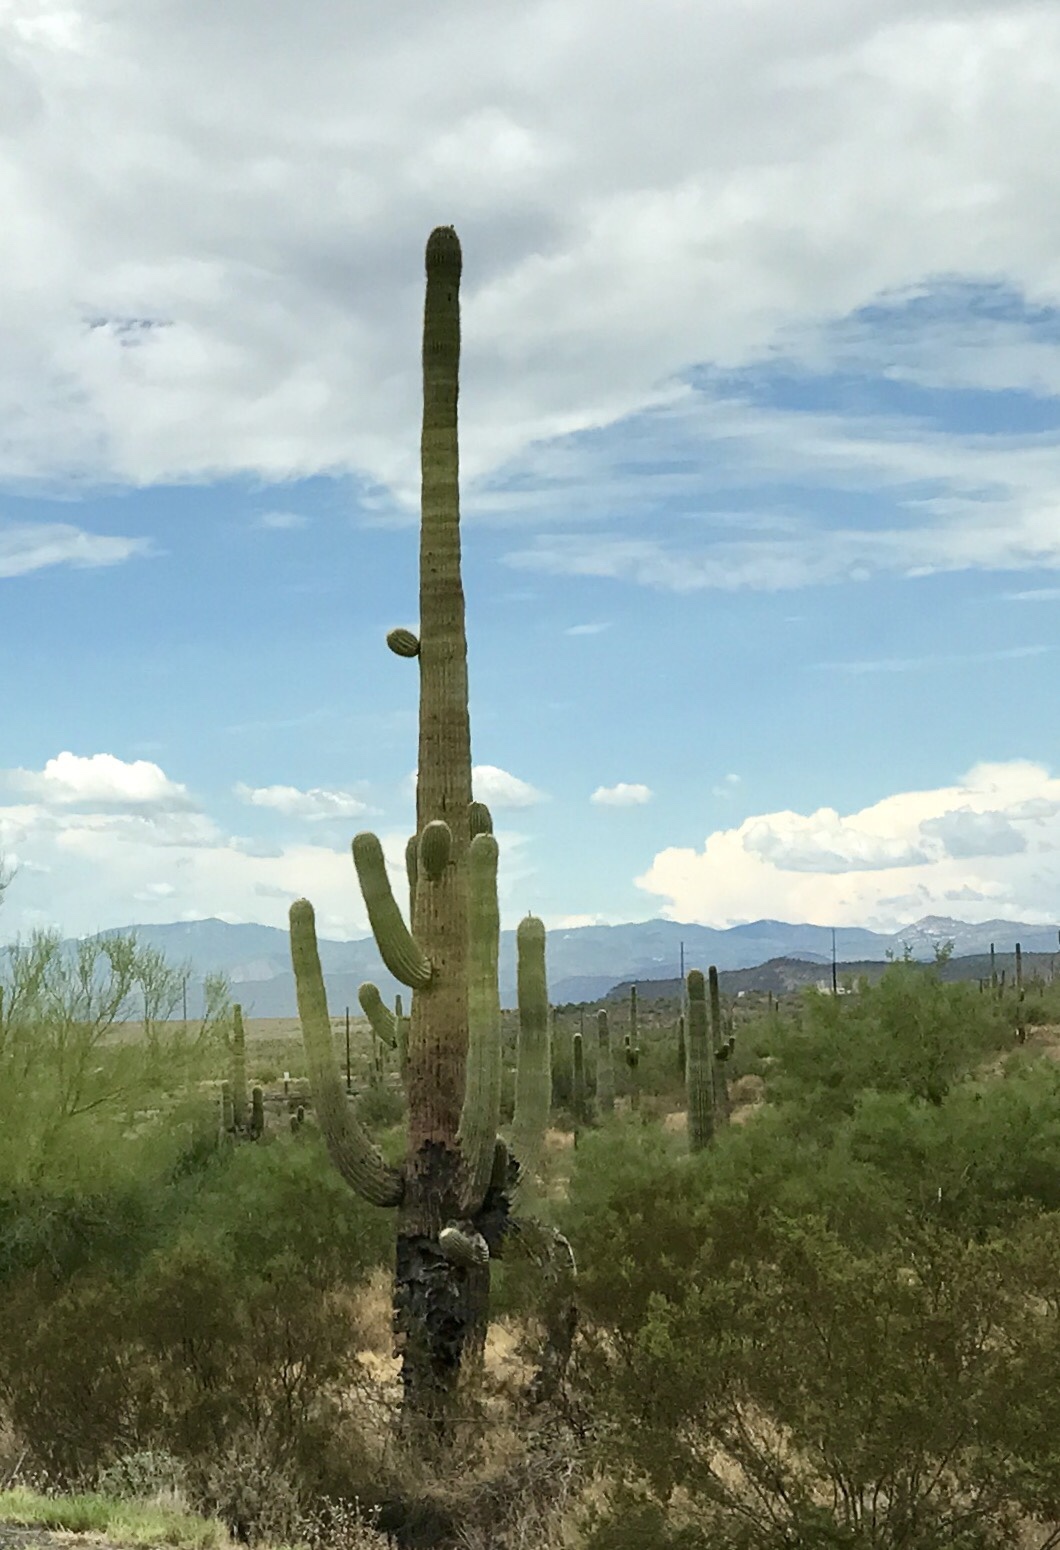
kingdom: Plantae
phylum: Tracheophyta
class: Magnoliopsida
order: Caryophyllales
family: Cactaceae
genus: Carnegiea
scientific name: Carnegiea gigantea
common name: Saguaro
